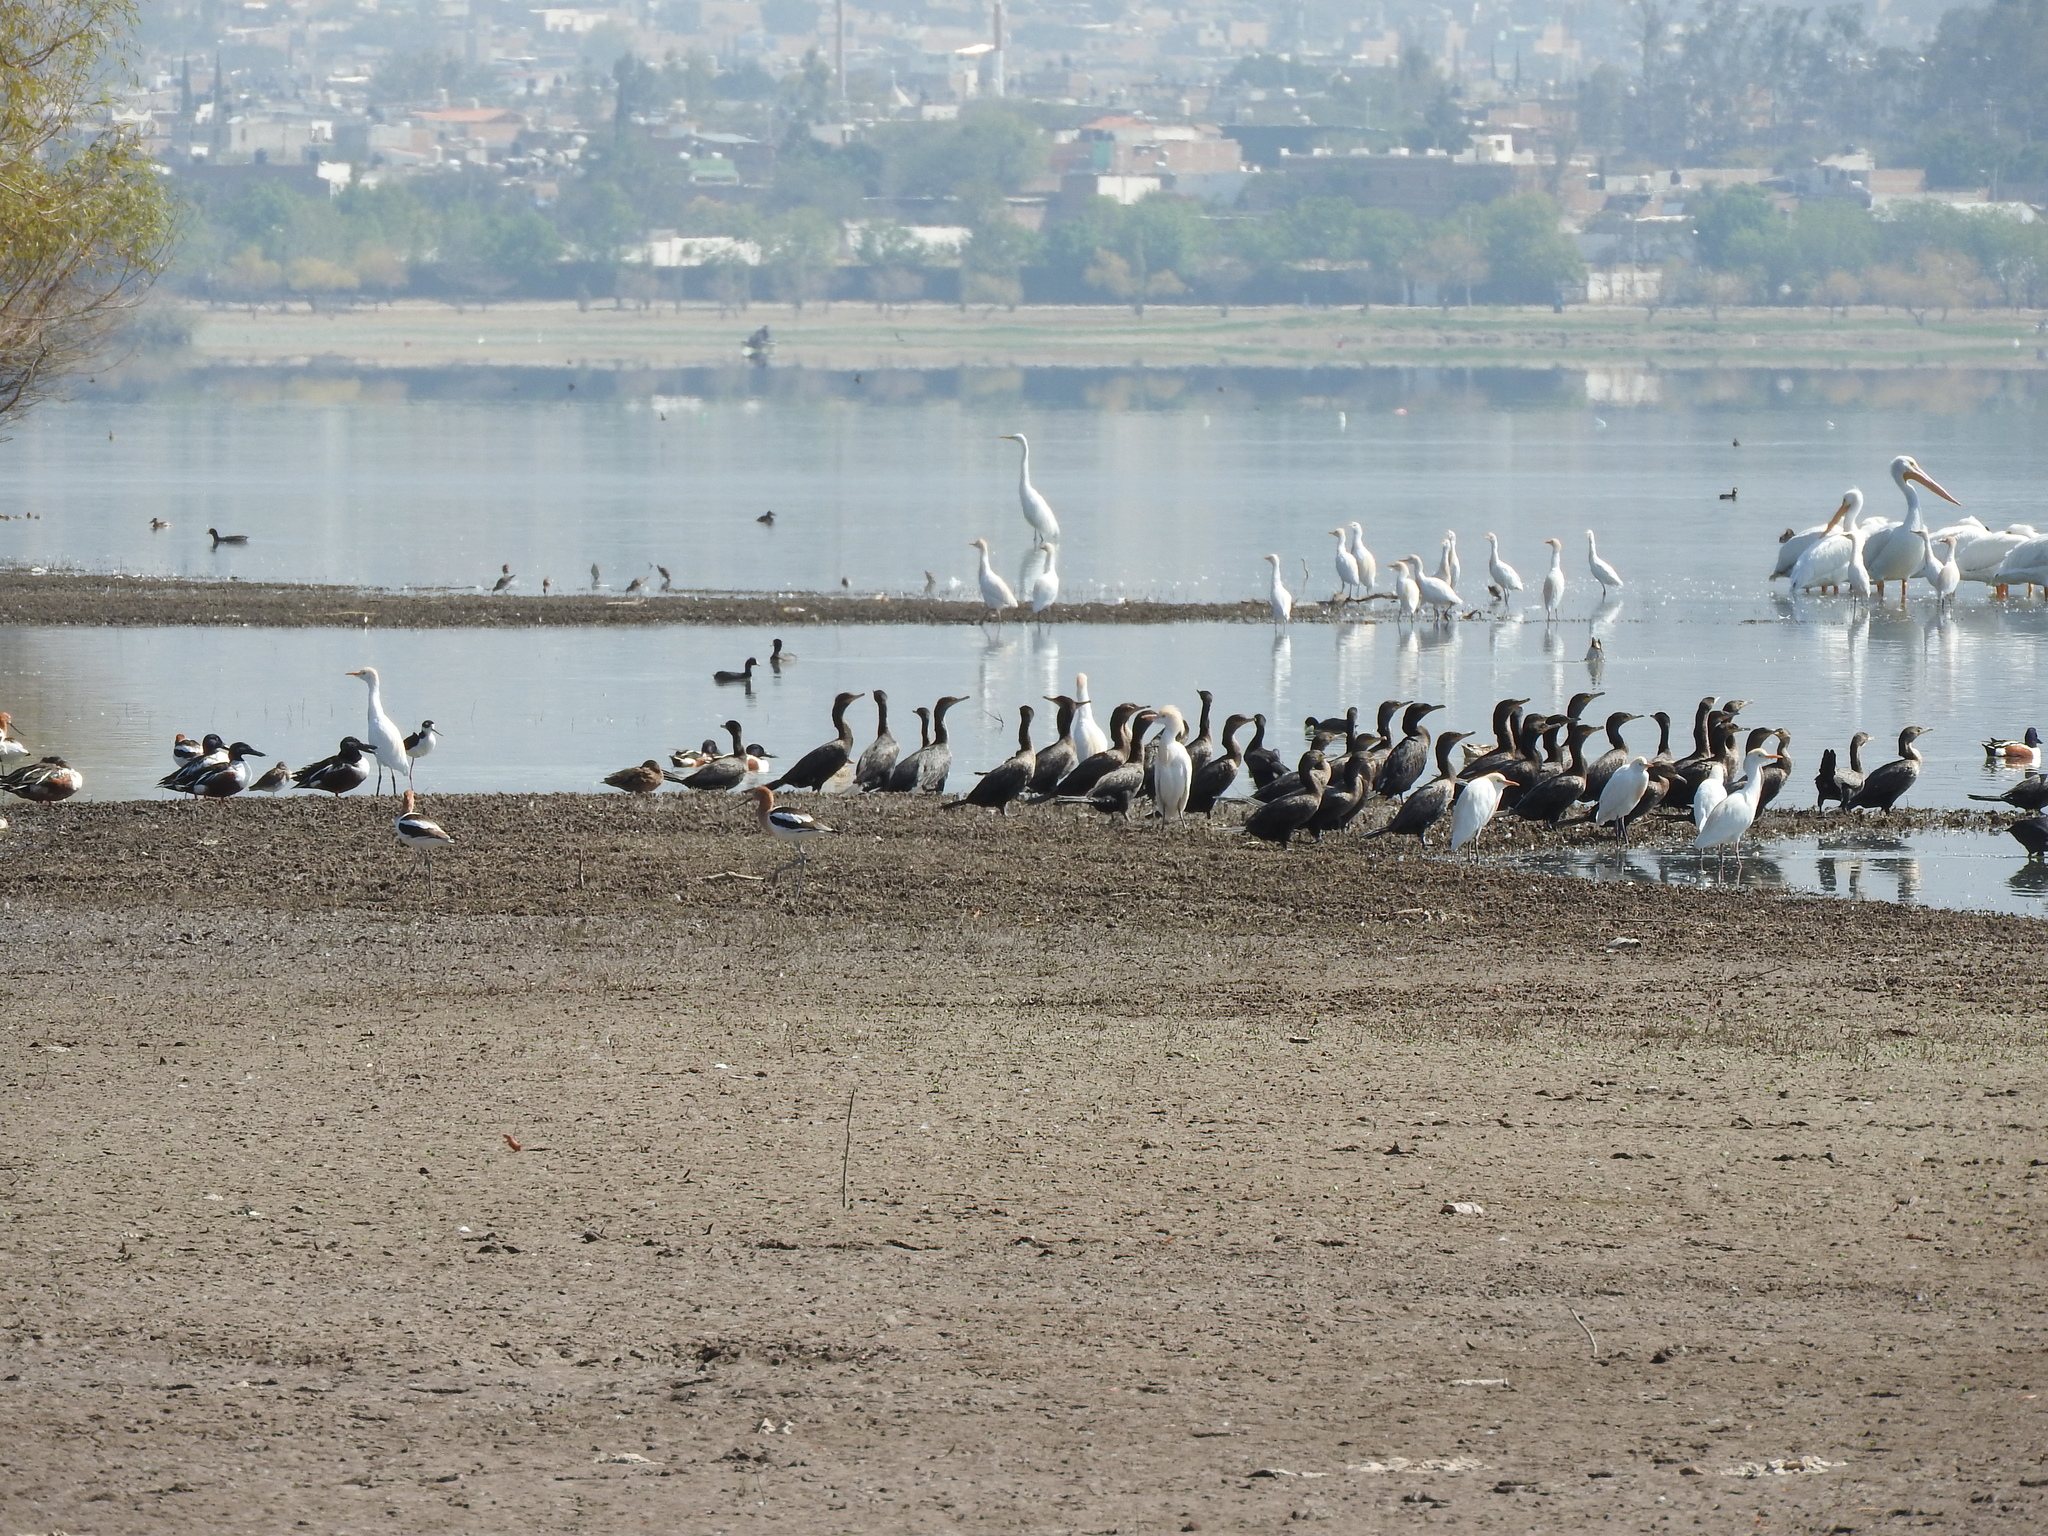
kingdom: Animalia
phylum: Chordata
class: Aves
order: Anseriformes
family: Anatidae
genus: Spatula
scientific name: Spatula clypeata
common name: Northern shoveler
